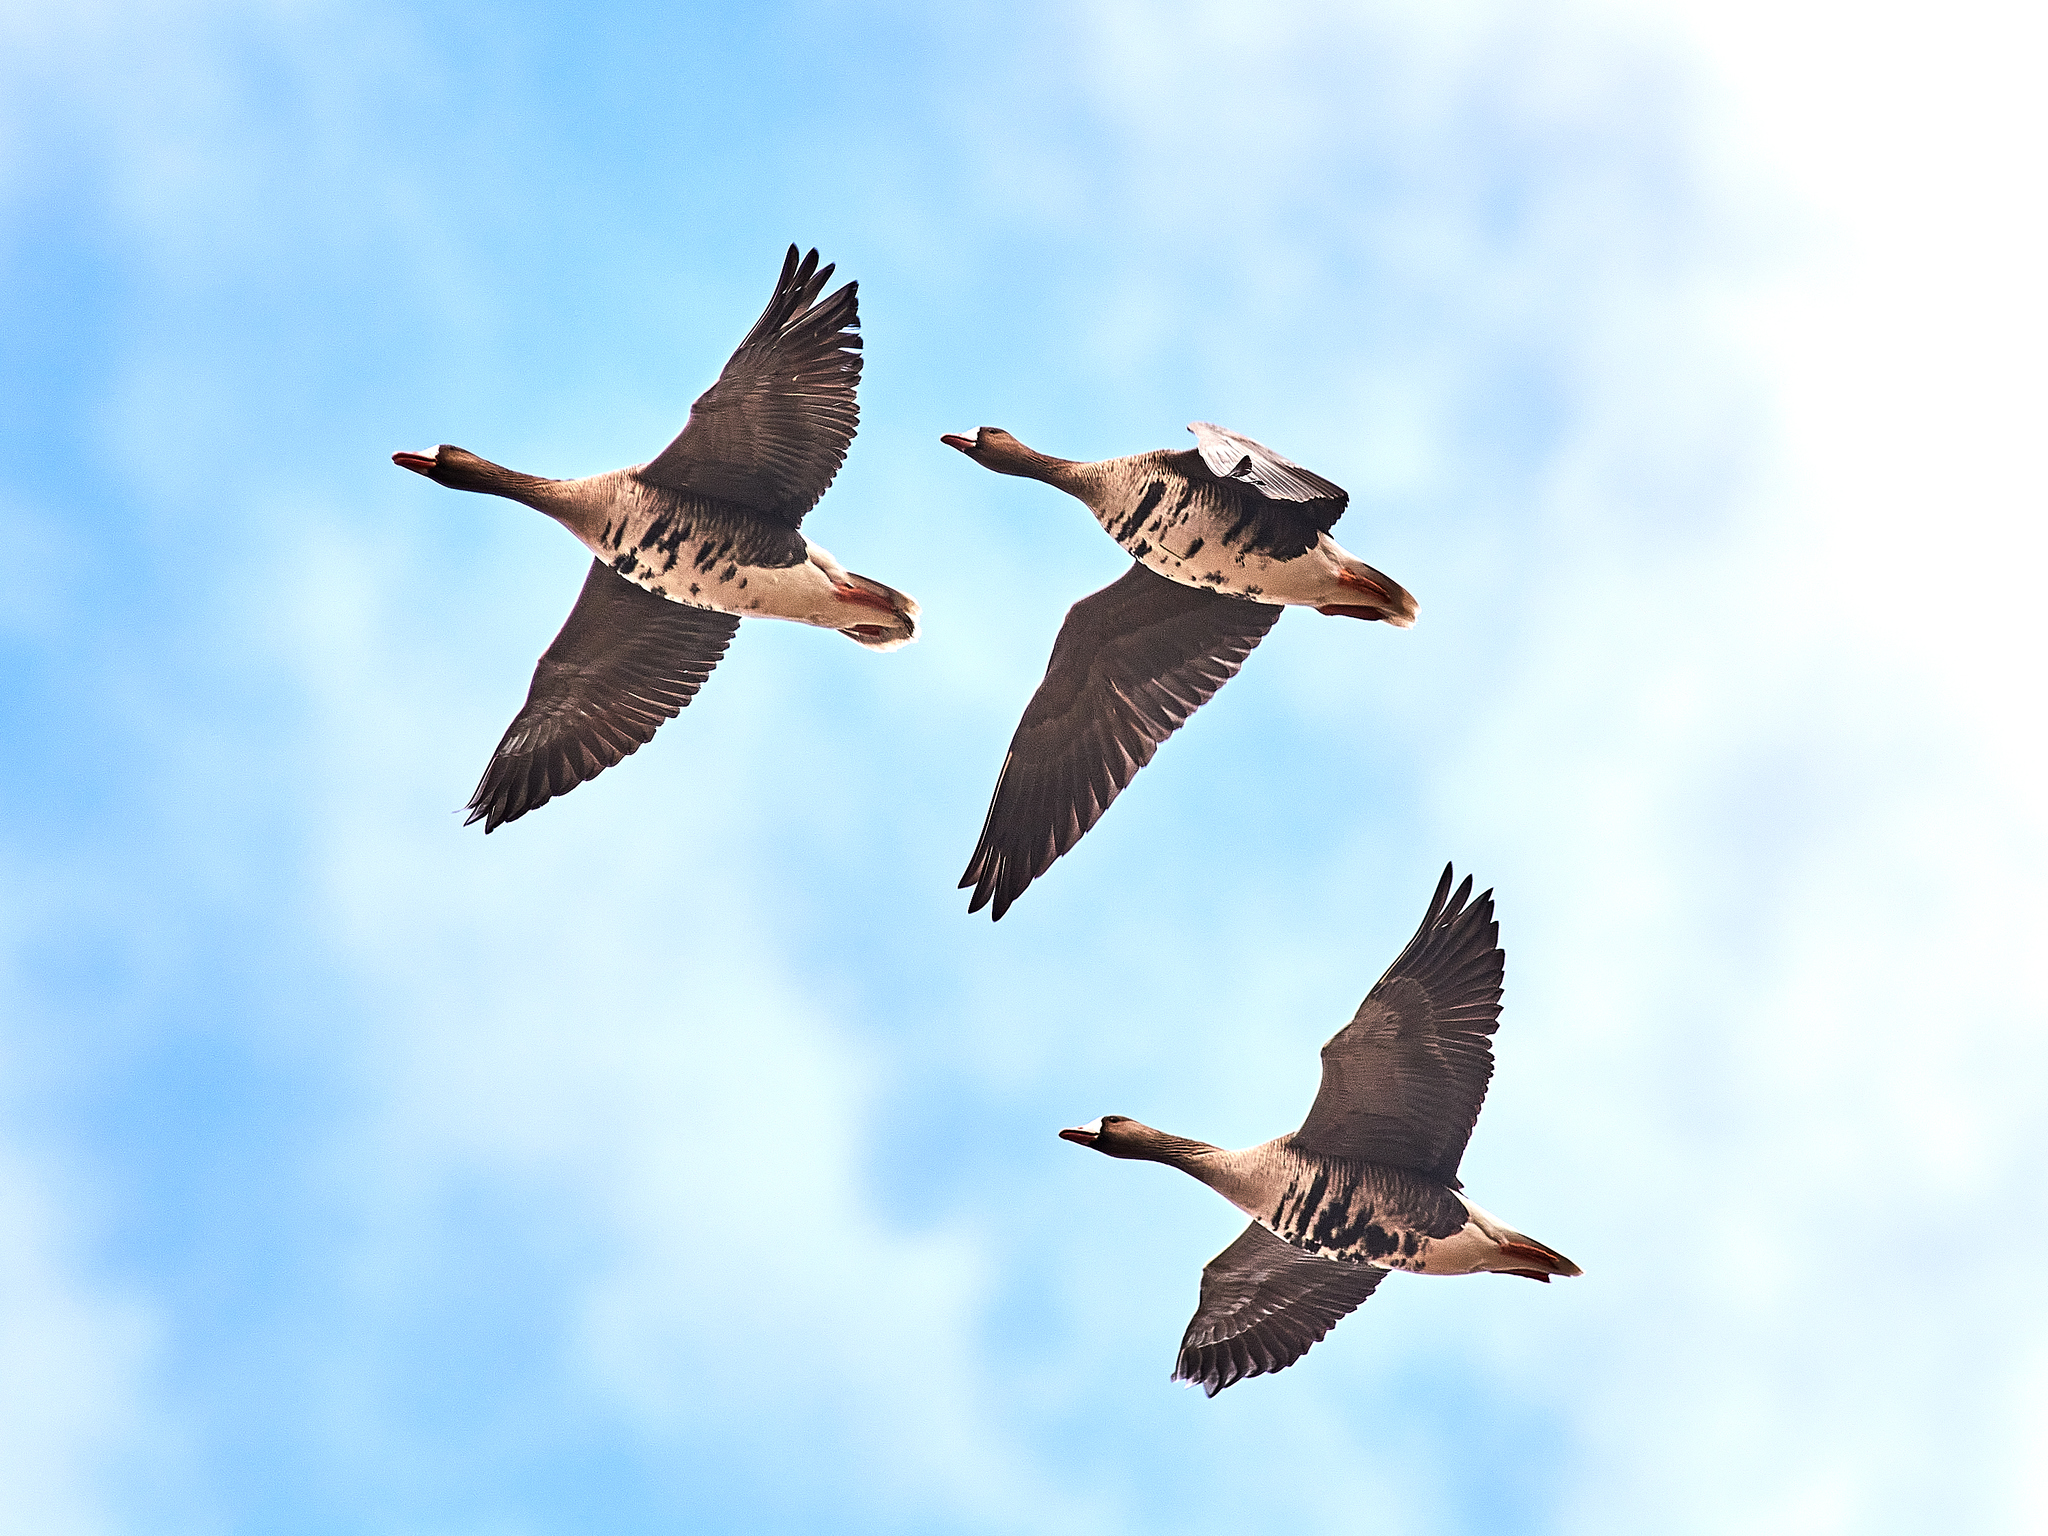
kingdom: Animalia
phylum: Chordata
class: Aves
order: Anseriformes
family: Anatidae
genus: Anser
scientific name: Anser albifrons
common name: Greater white-fronted goose
